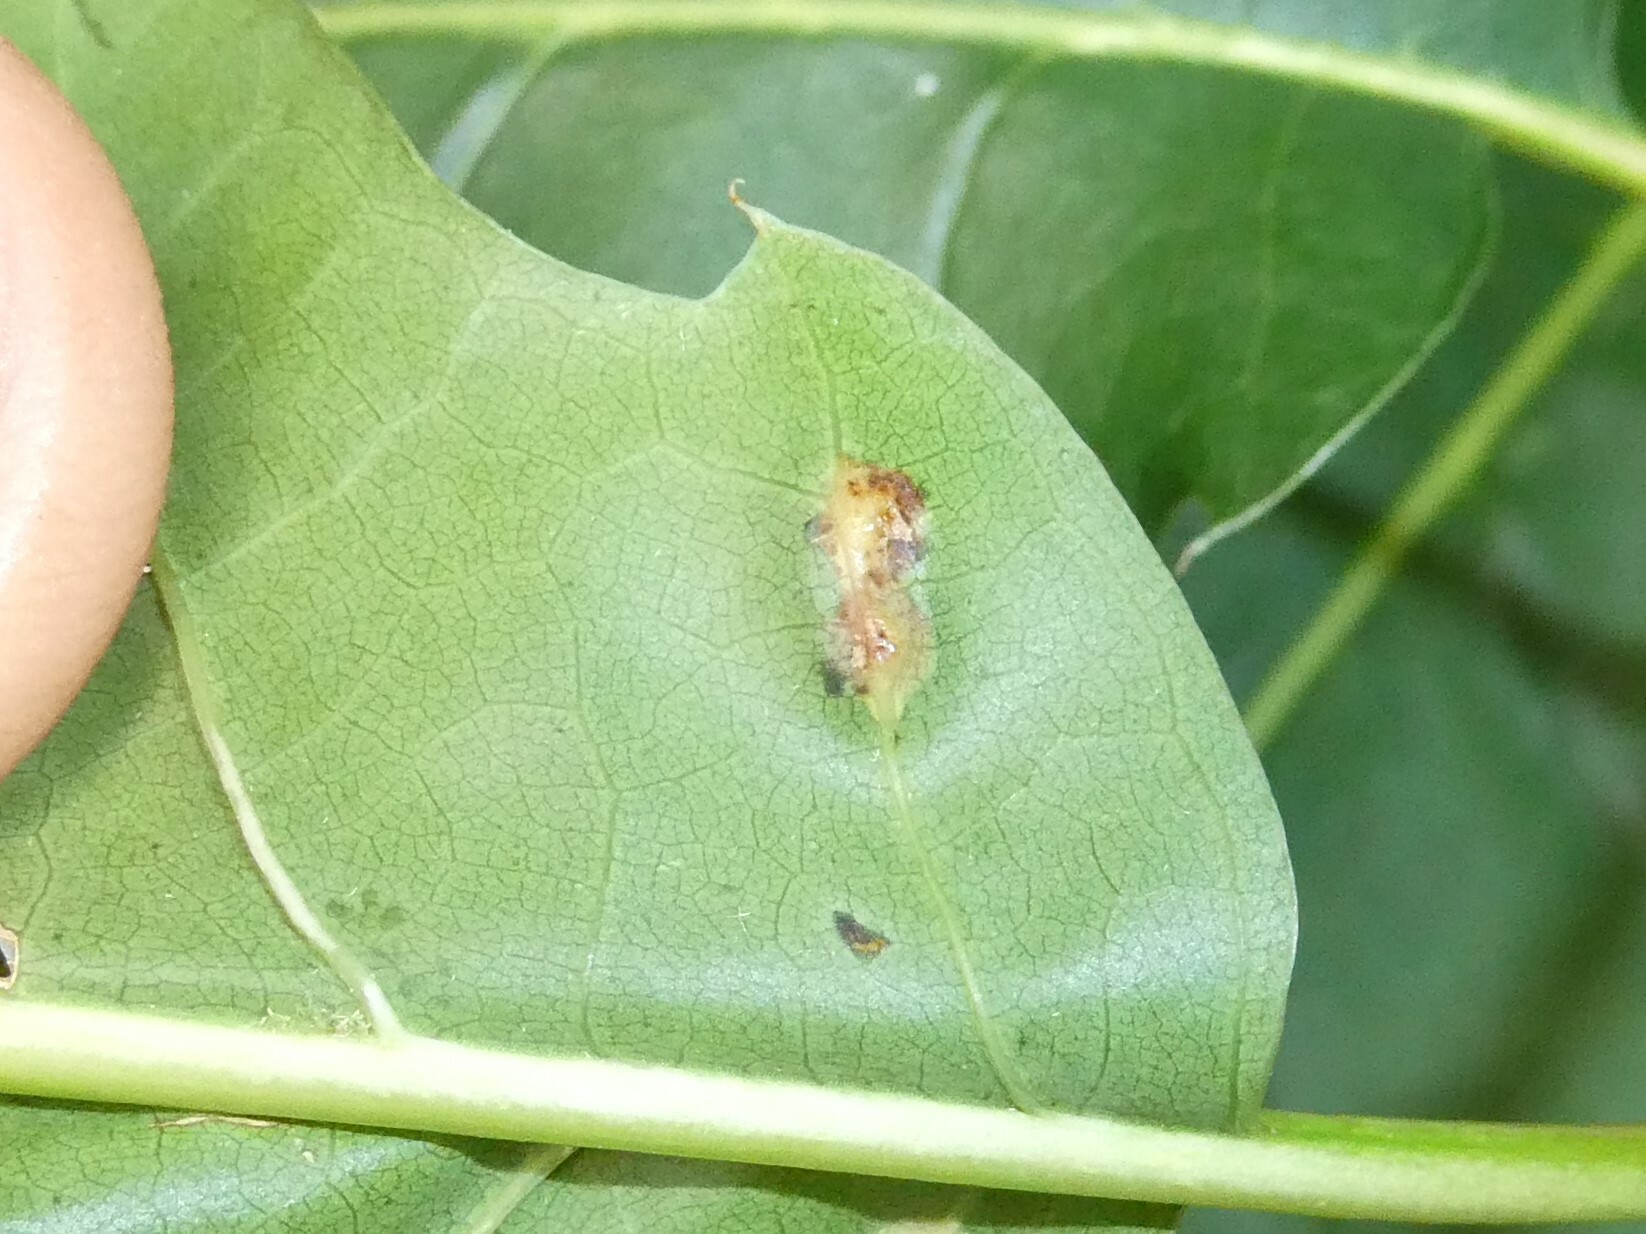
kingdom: Animalia
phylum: Arthropoda
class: Insecta
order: Diptera
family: Cecidomyiidae
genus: Polystepha
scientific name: Polystepha pilulae
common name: Oak leaf gall midge
